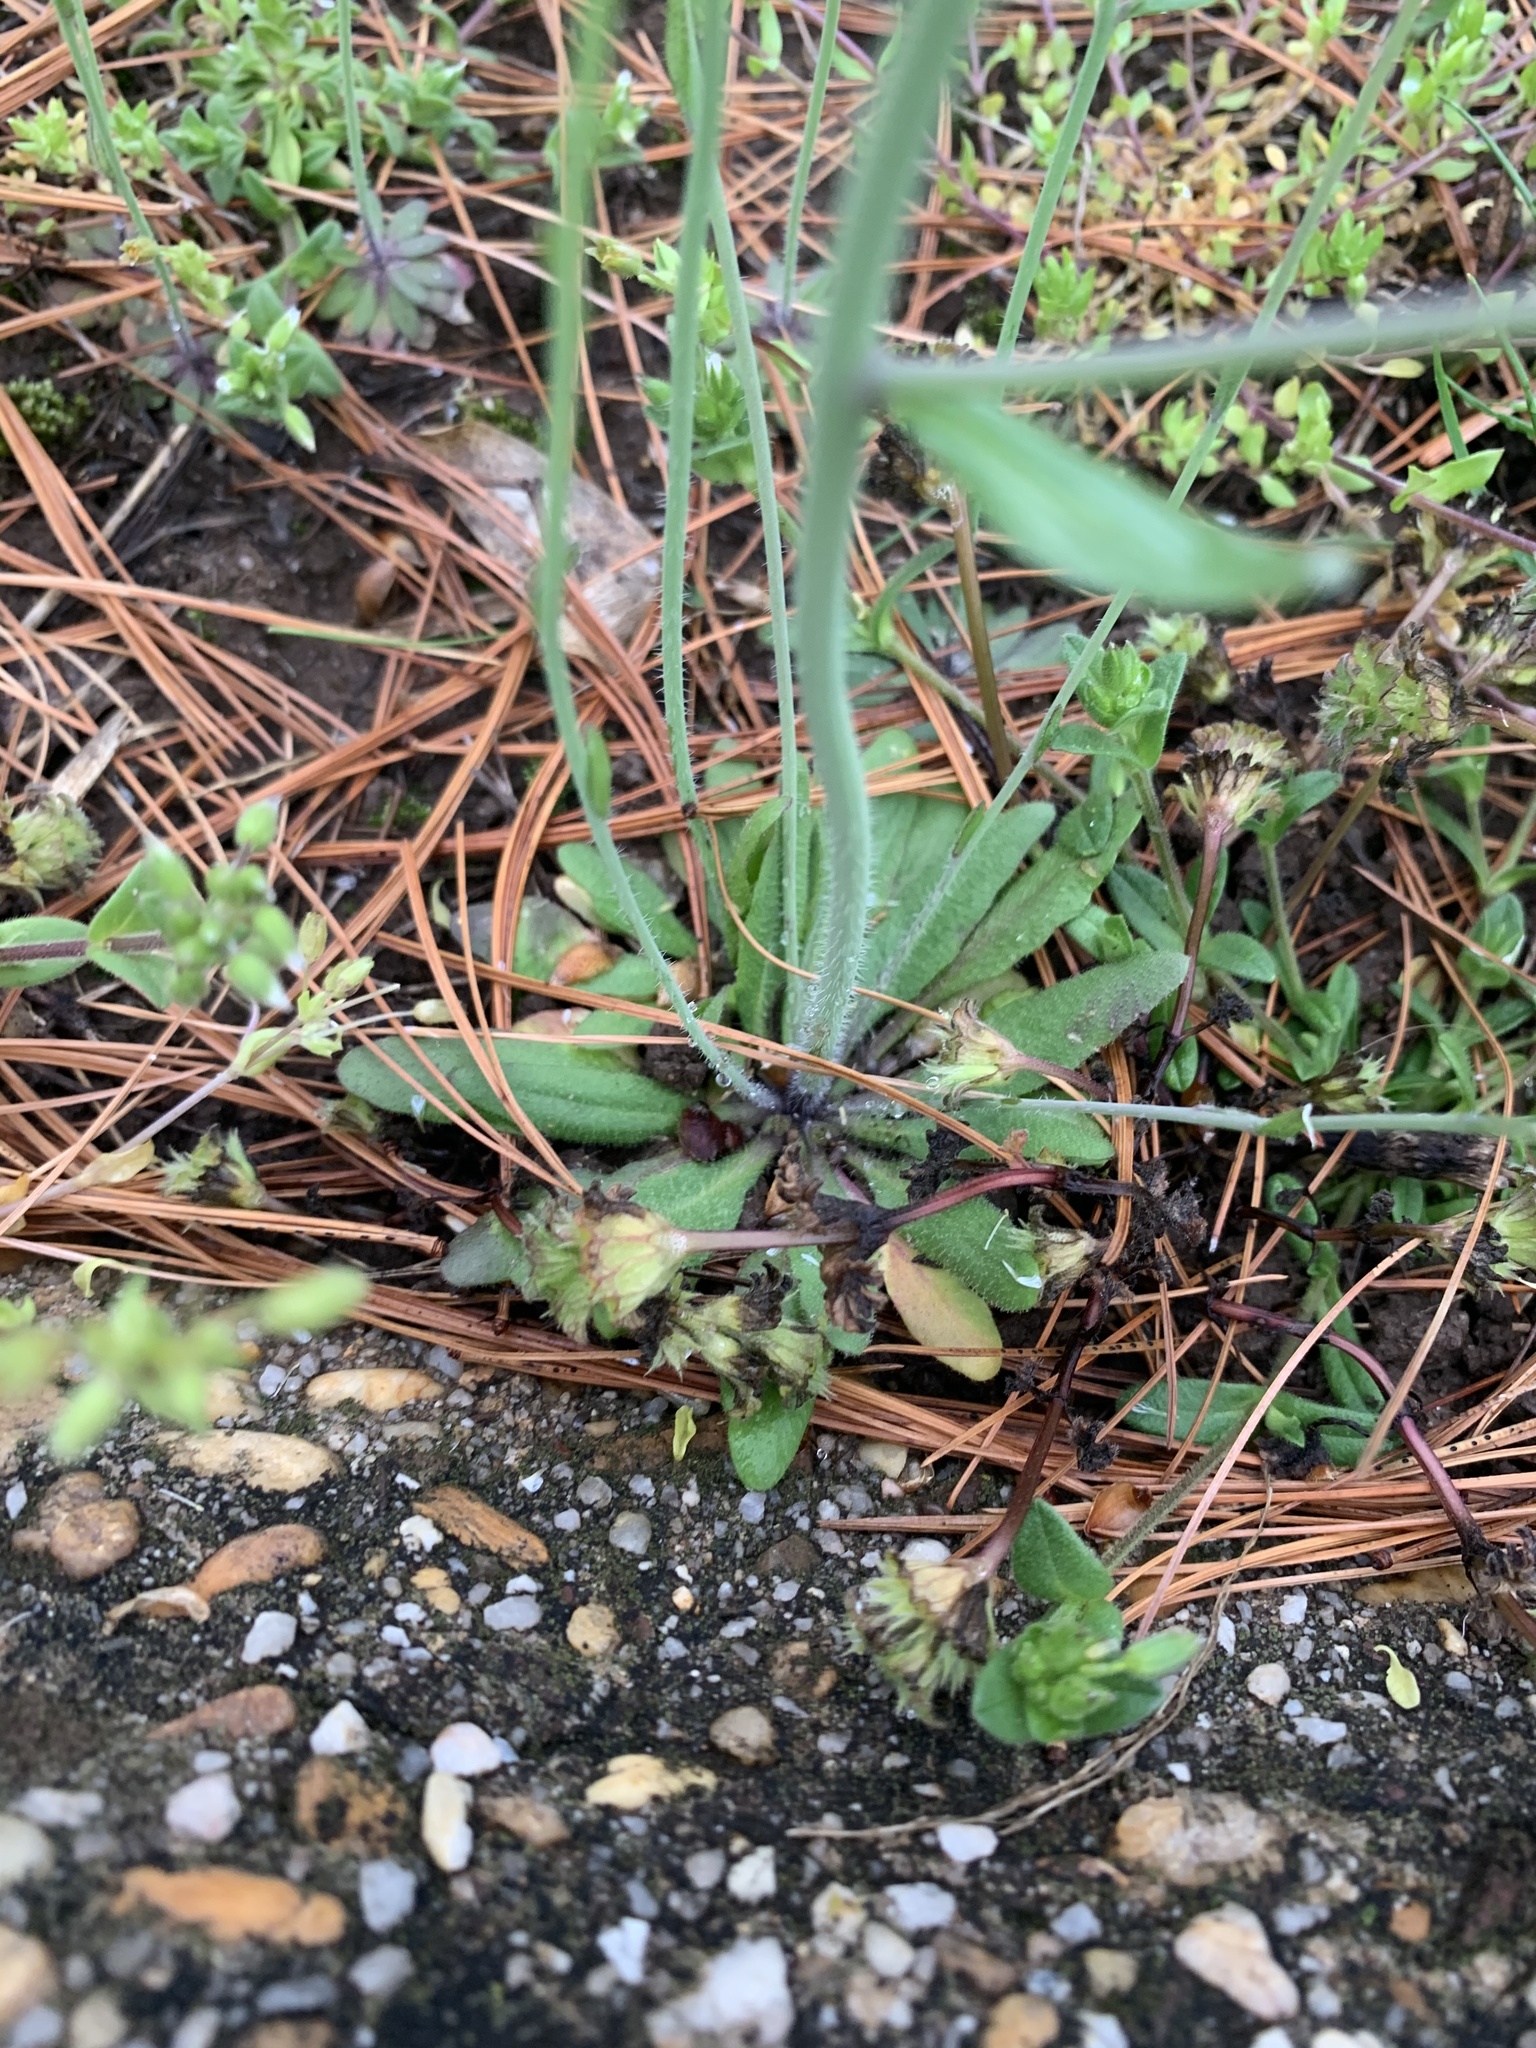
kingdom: Plantae
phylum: Tracheophyta
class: Magnoliopsida
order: Brassicales
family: Brassicaceae
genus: Arabidopsis
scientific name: Arabidopsis thaliana
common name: Thale cress
